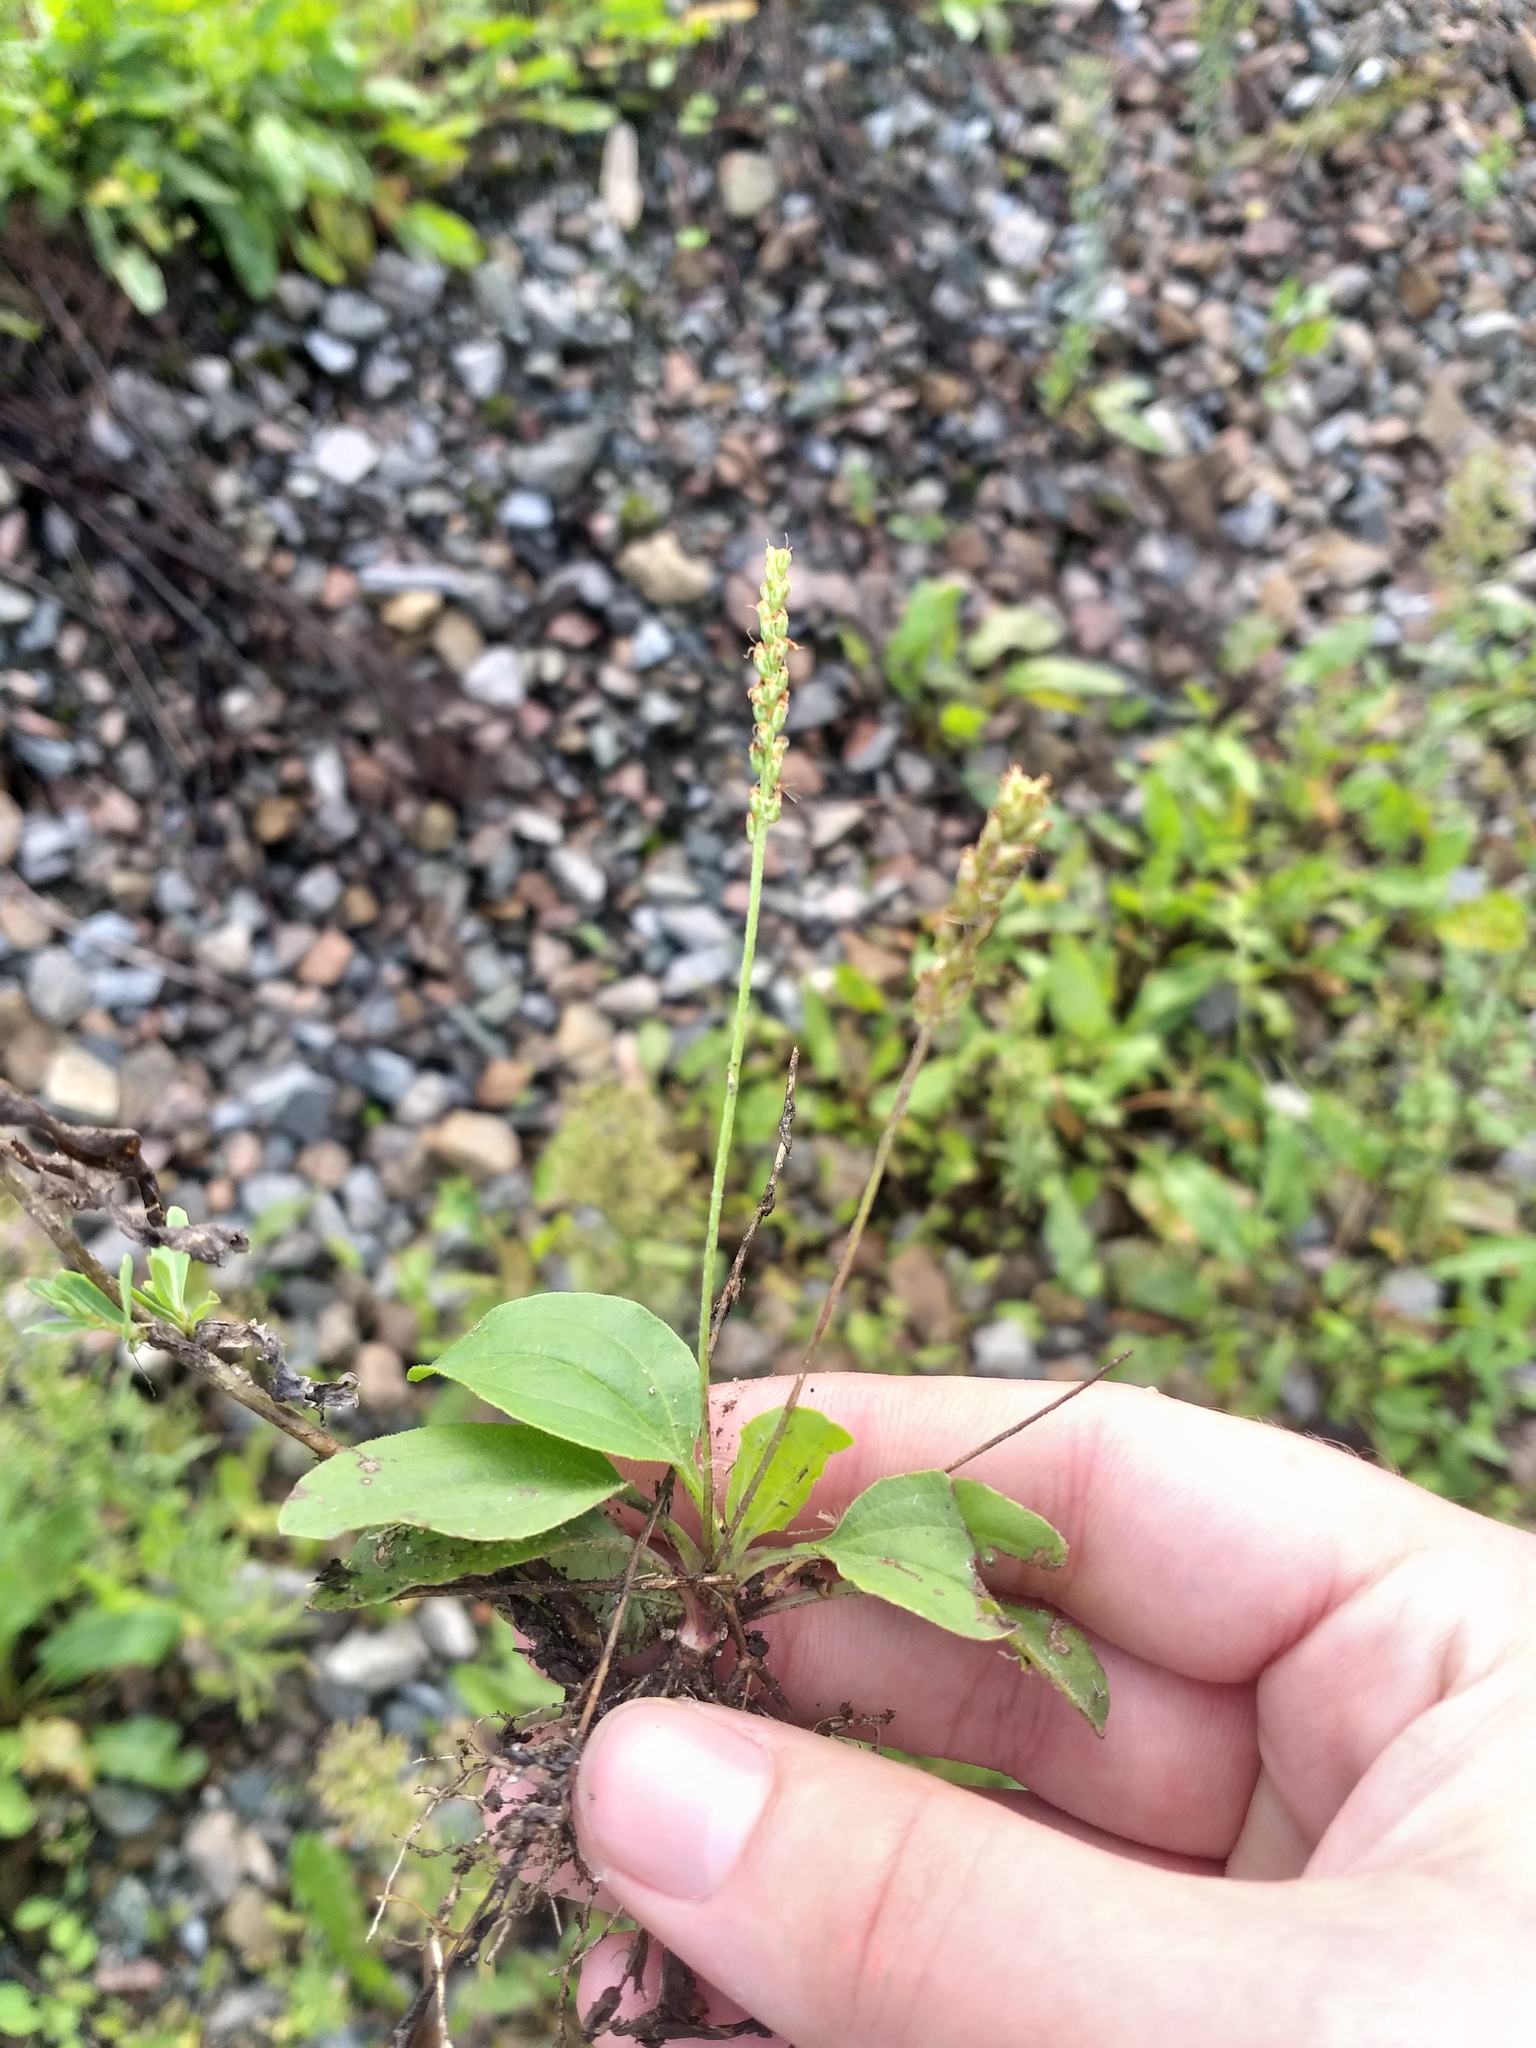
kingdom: Plantae
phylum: Tracheophyta
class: Magnoliopsida
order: Lamiales
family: Plantaginaceae
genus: Plantago
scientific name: Plantago uliginosa
